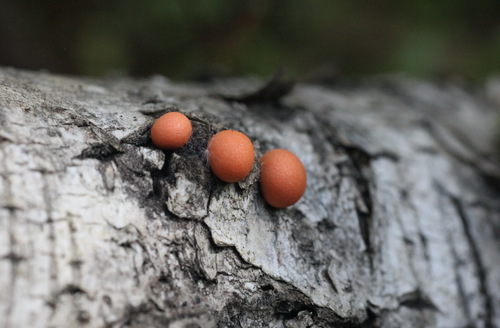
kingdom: Protozoa
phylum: Mycetozoa
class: Myxomycetes
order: Cribrariales
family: Tubiferaceae
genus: Lycogala
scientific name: Lycogala epidendrum
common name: Wolf's milk
